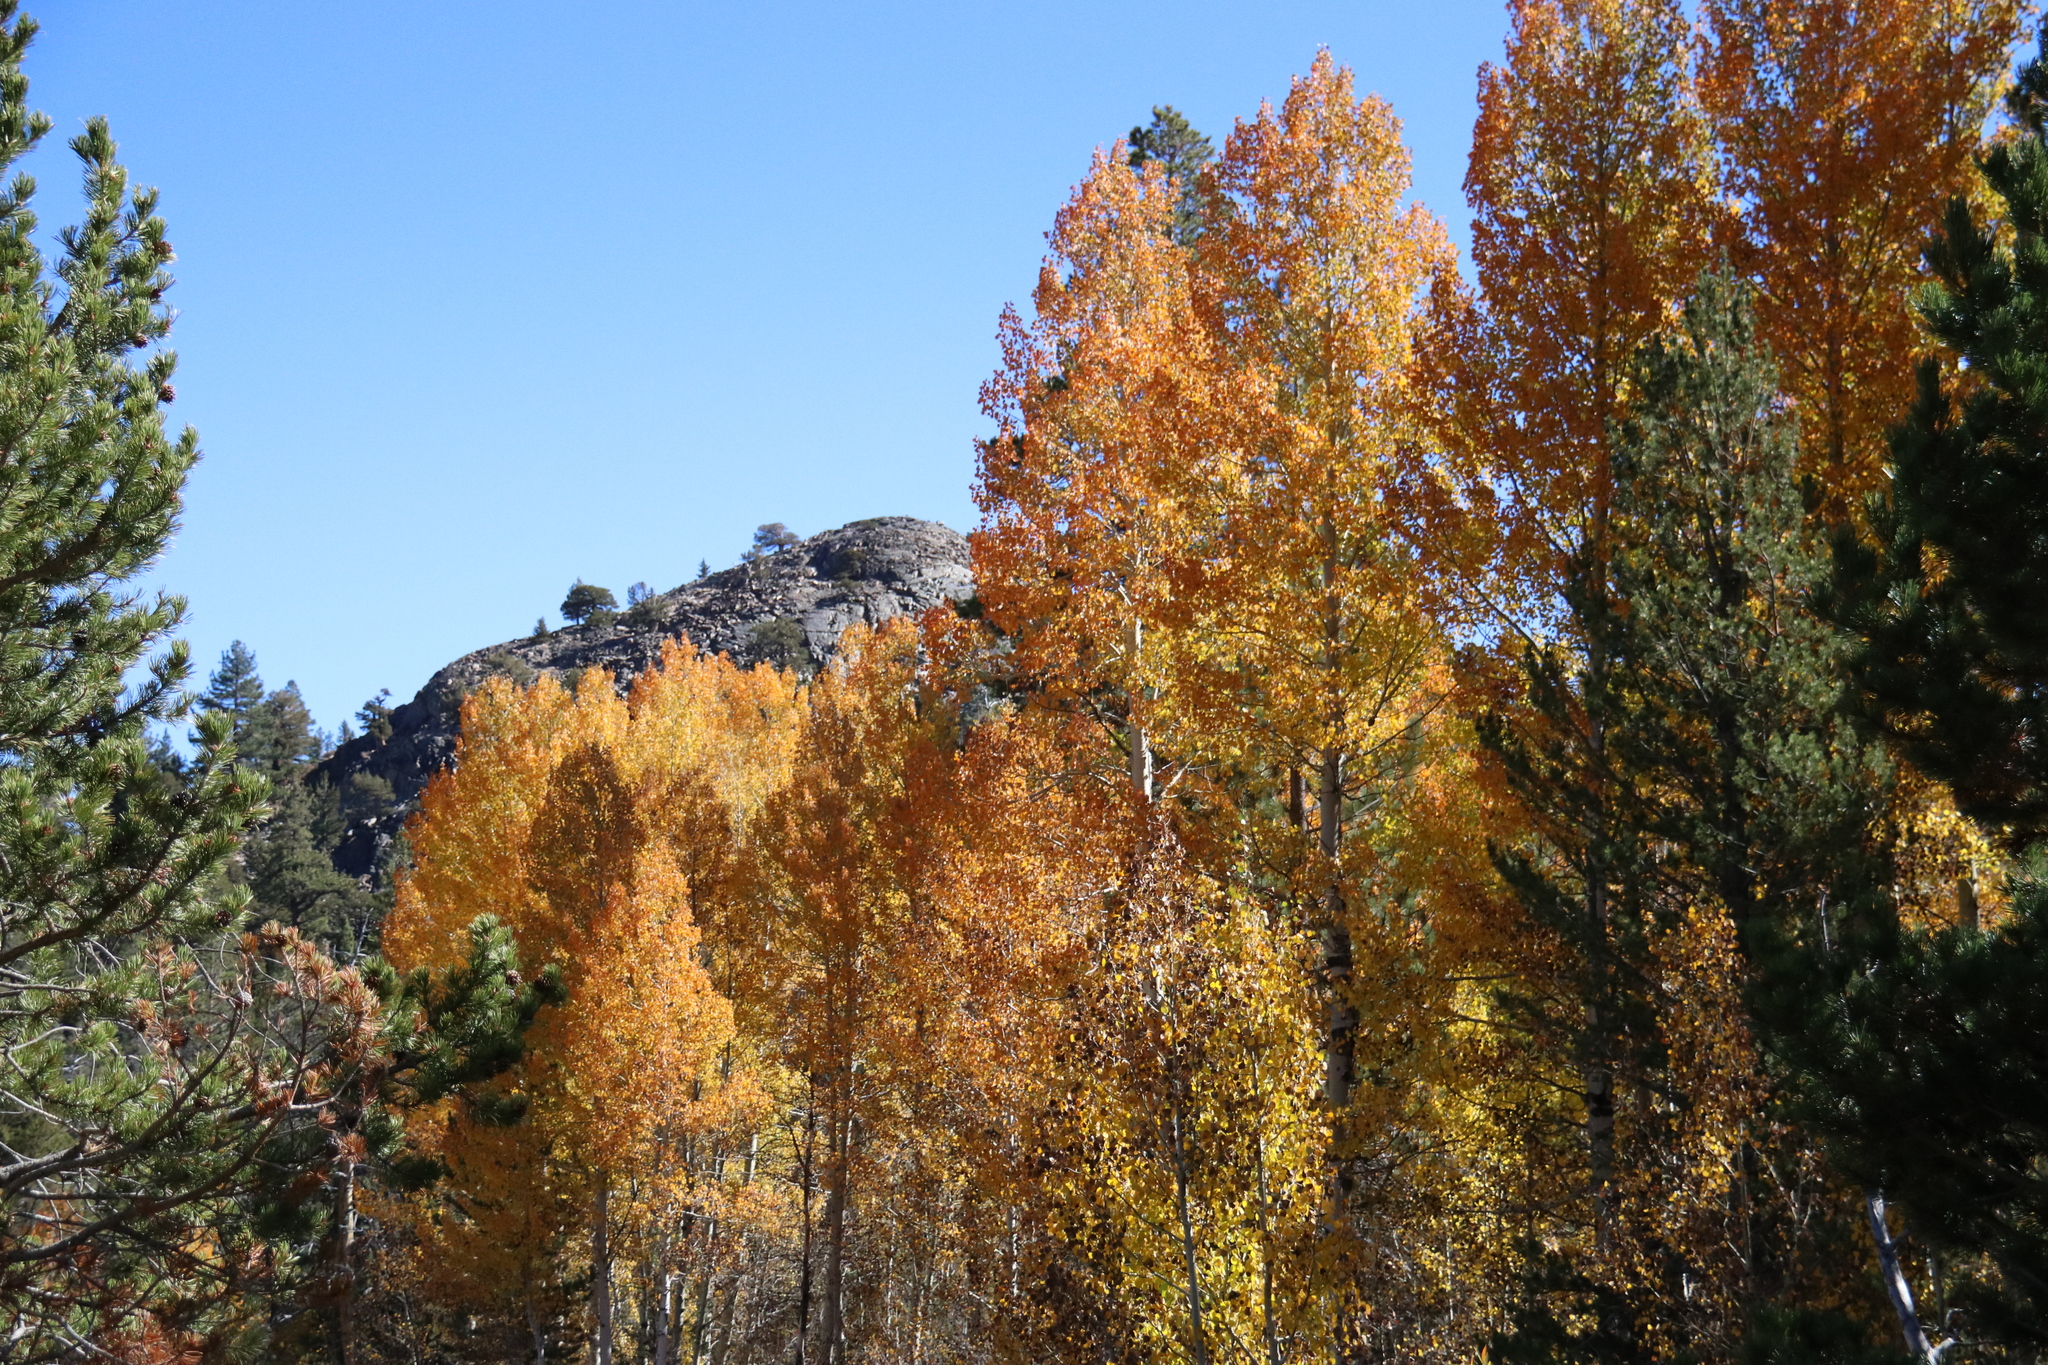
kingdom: Plantae
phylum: Tracheophyta
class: Magnoliopsida
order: Malpighiales
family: Salicaceae
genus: Populus
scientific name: Populus tremuloides
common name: Quaking aspen
